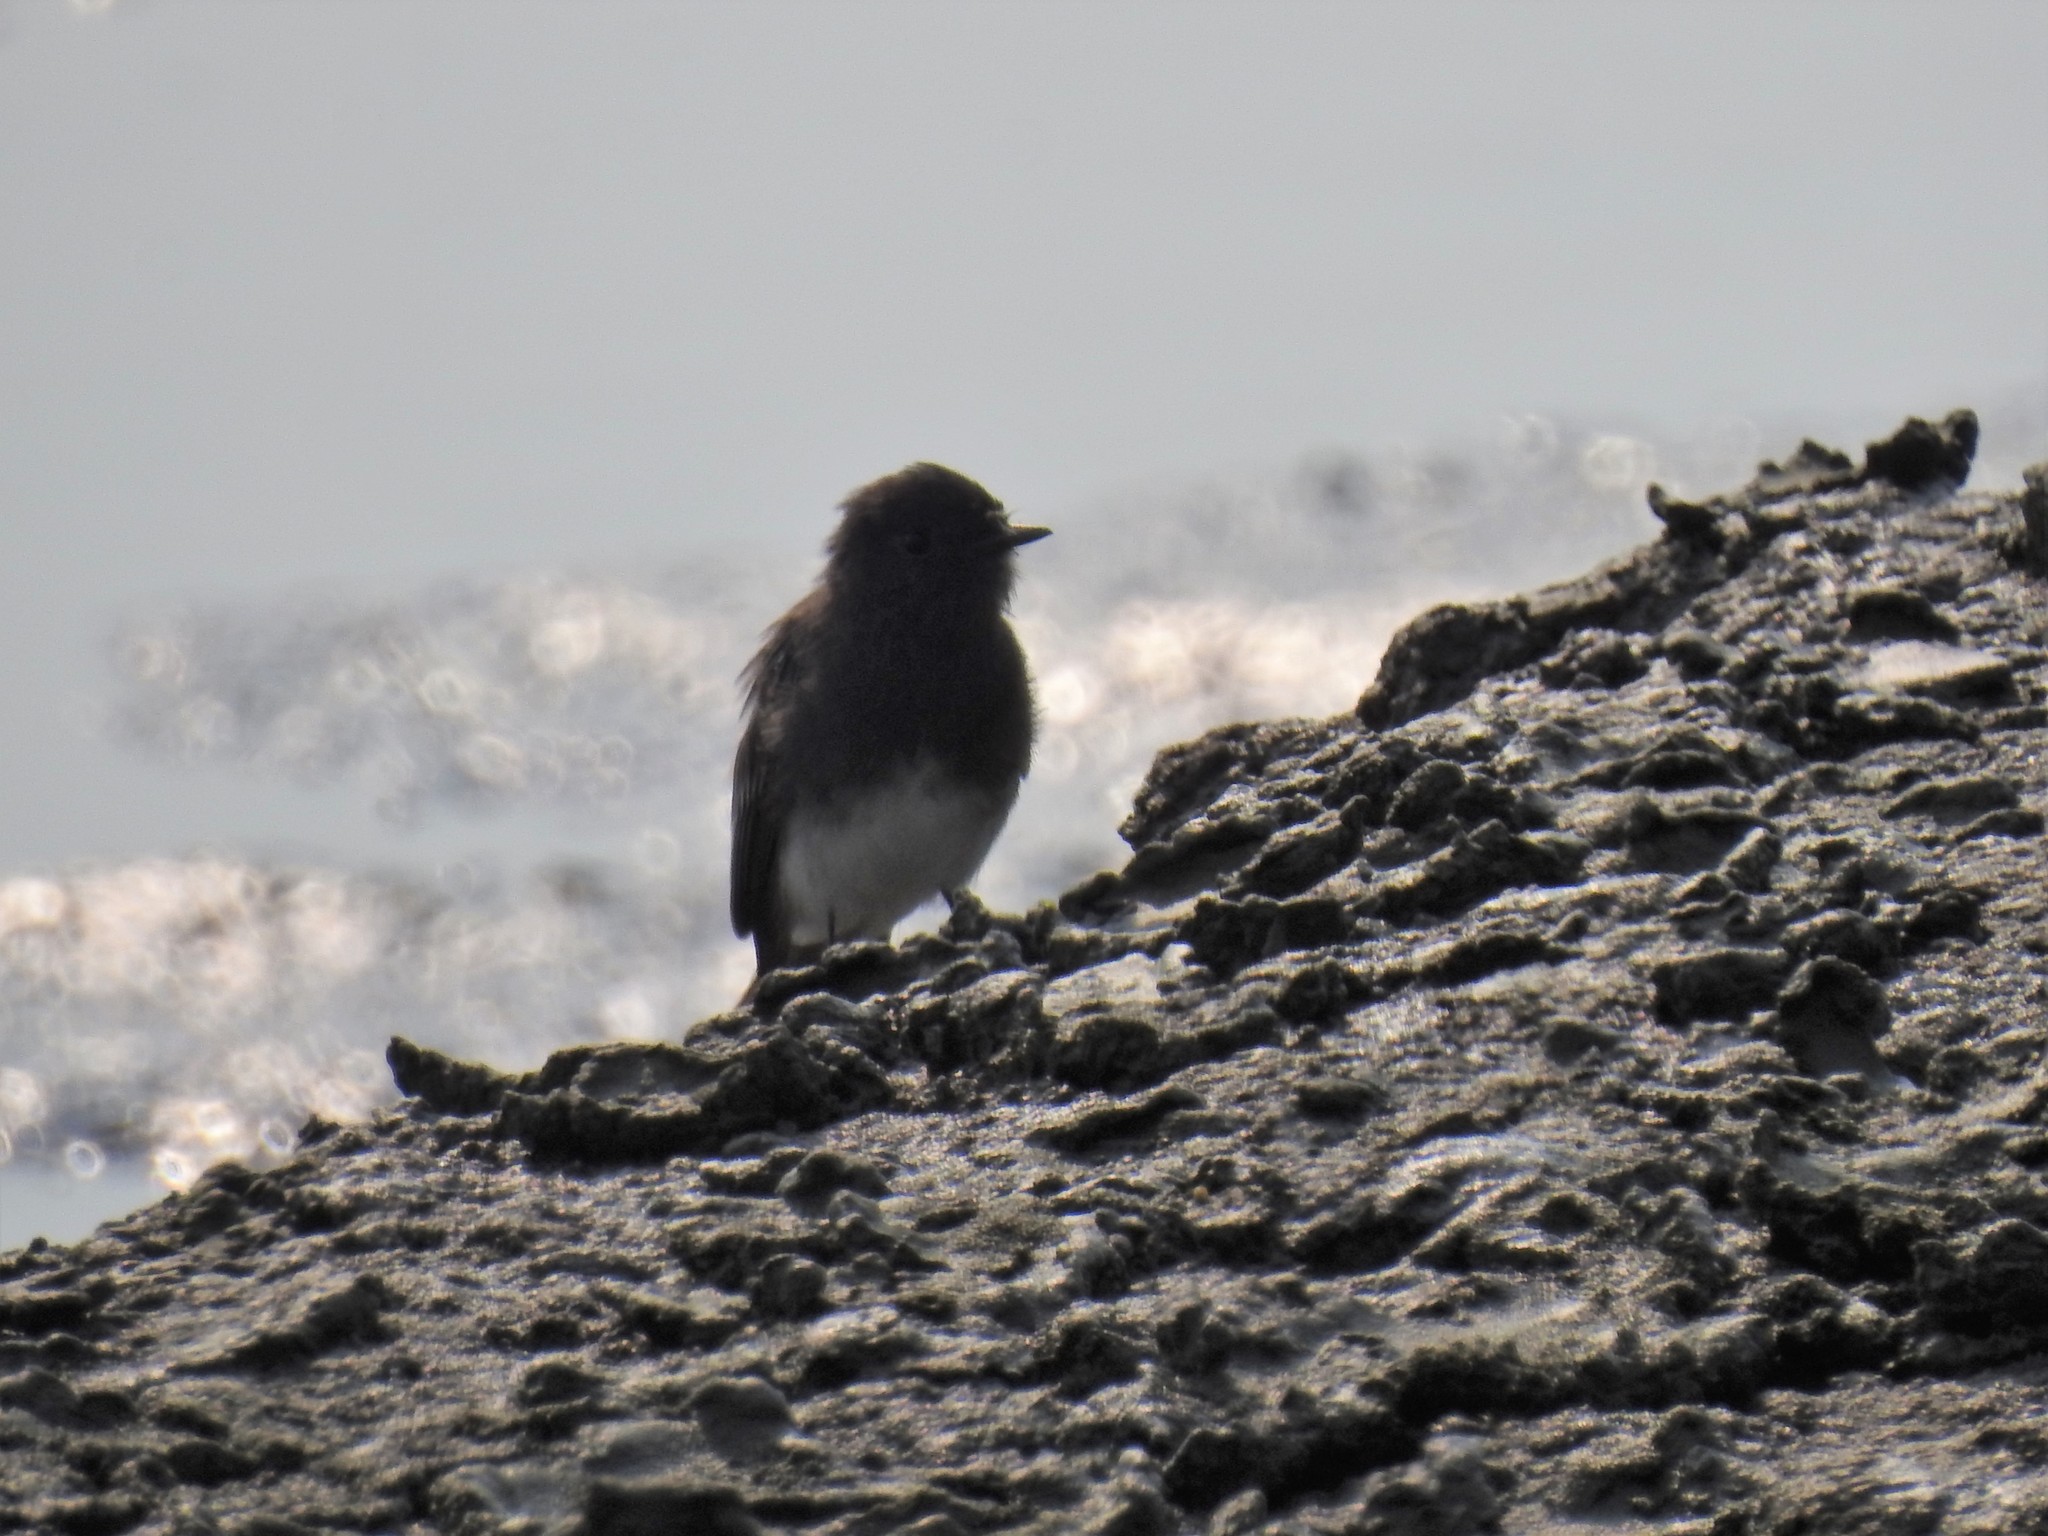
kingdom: Animalia
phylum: Chordata
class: Aves
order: Passeriformes
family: Tyrannidae
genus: Sayornis
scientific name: Sayornis nigricans
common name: Black phoebe
